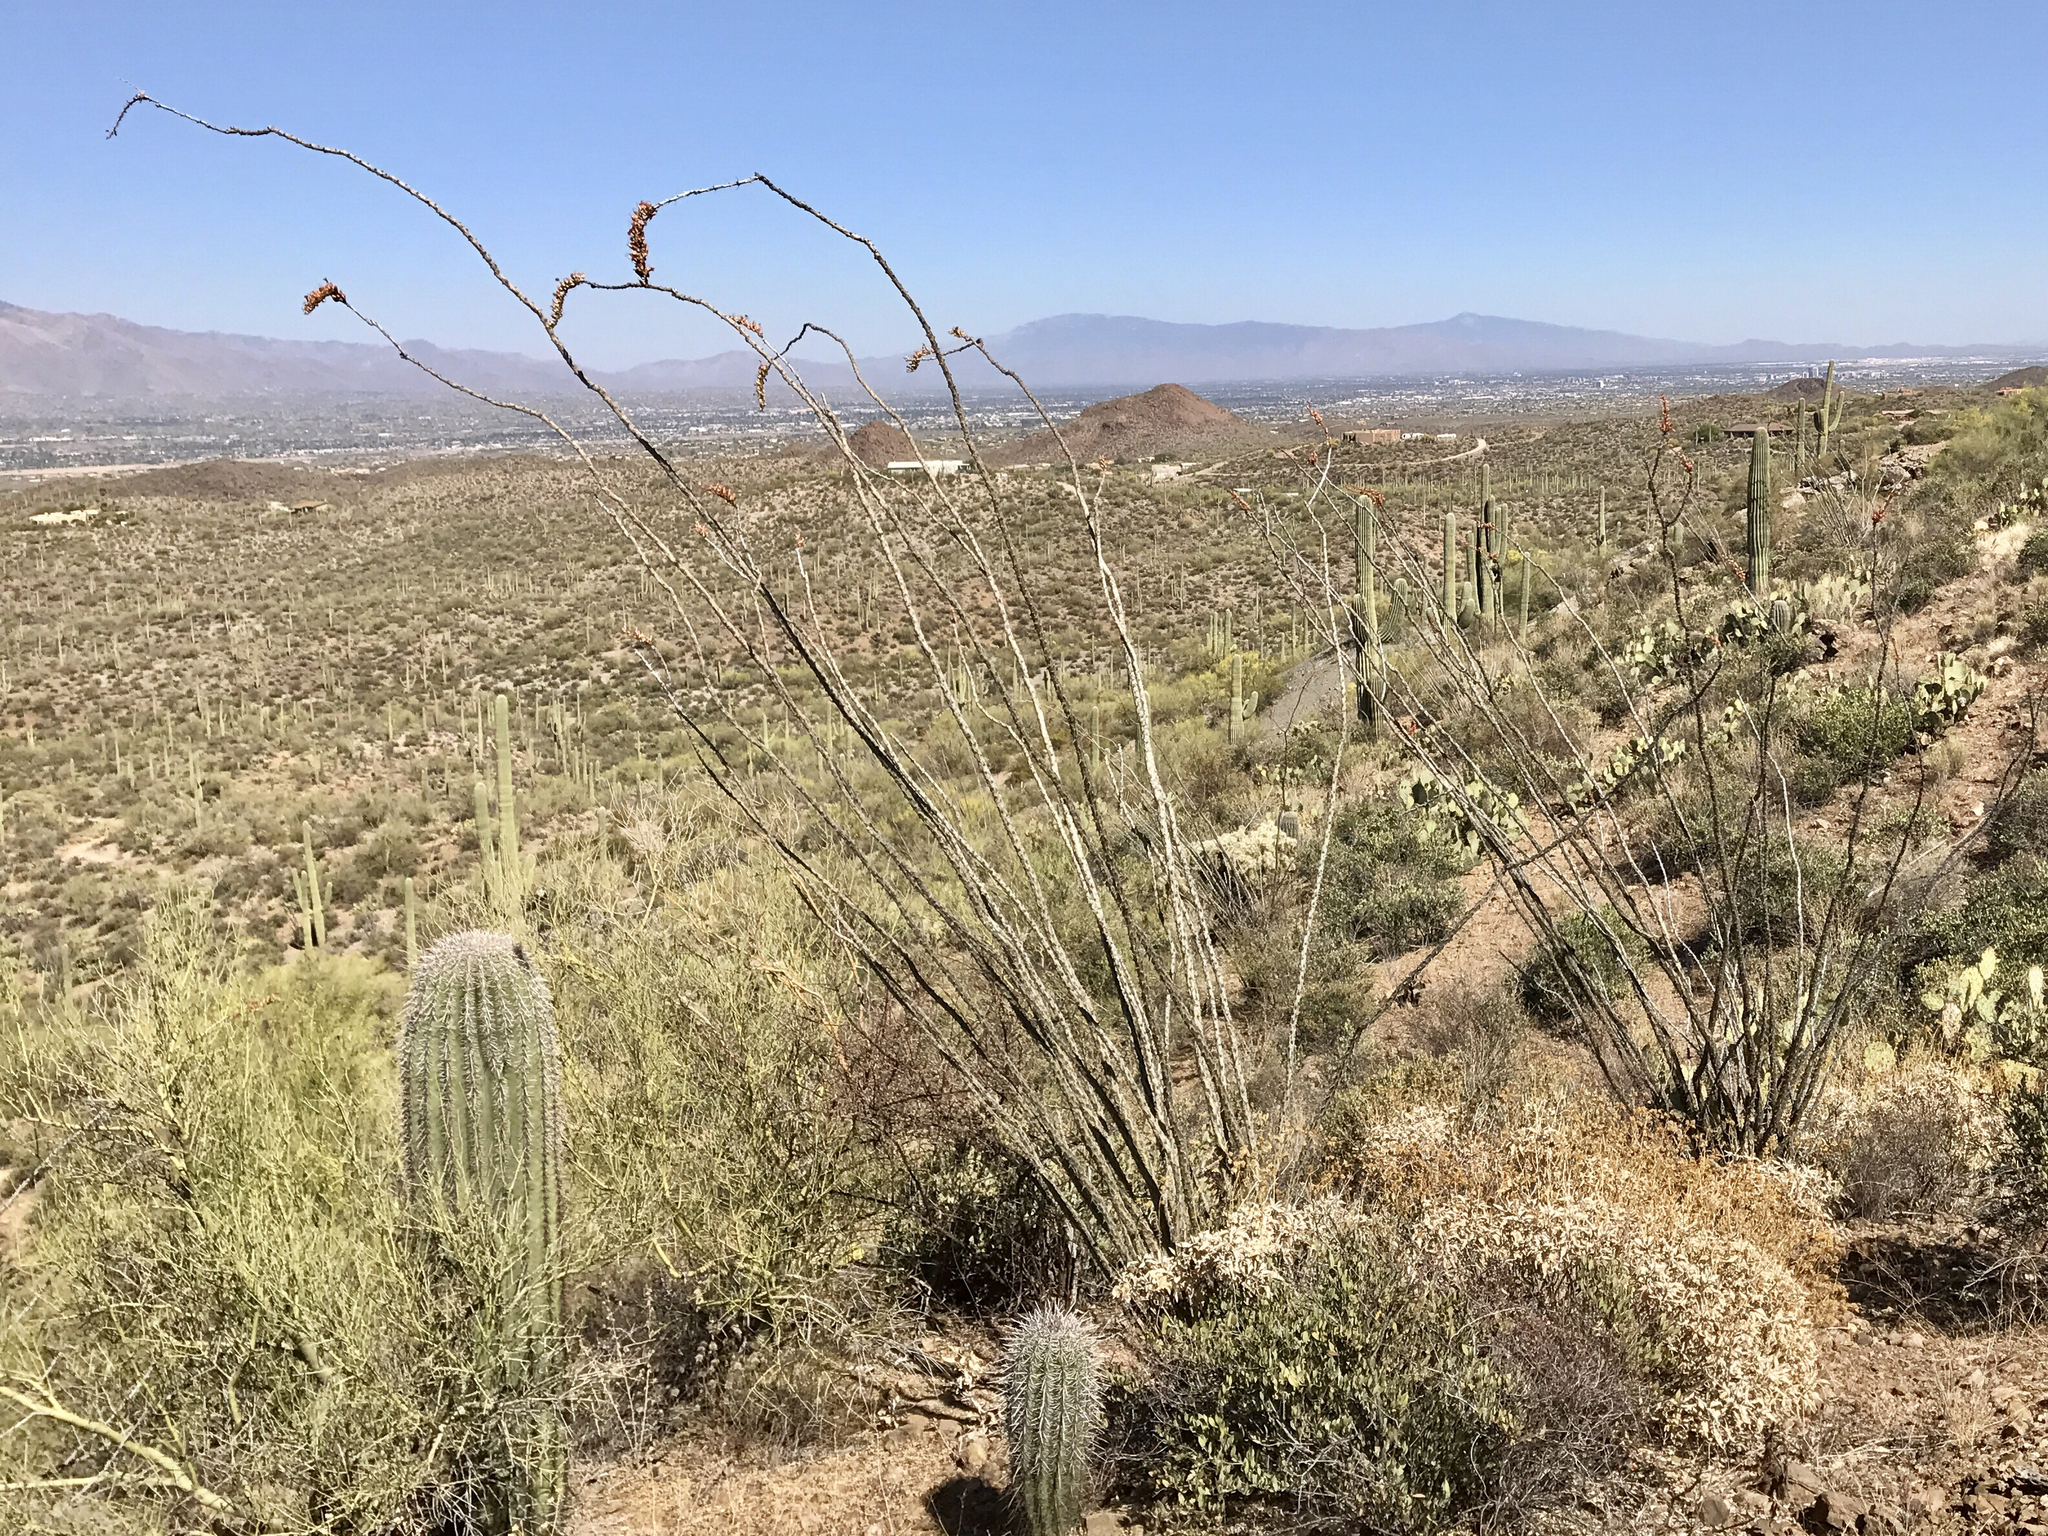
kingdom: Plantae
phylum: Tracheophyta
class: Magnoliopsida
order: Ericales
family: Fouquieriaceae
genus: Fouquieria
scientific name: Fouquieria splendens
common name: Vine-cactus
